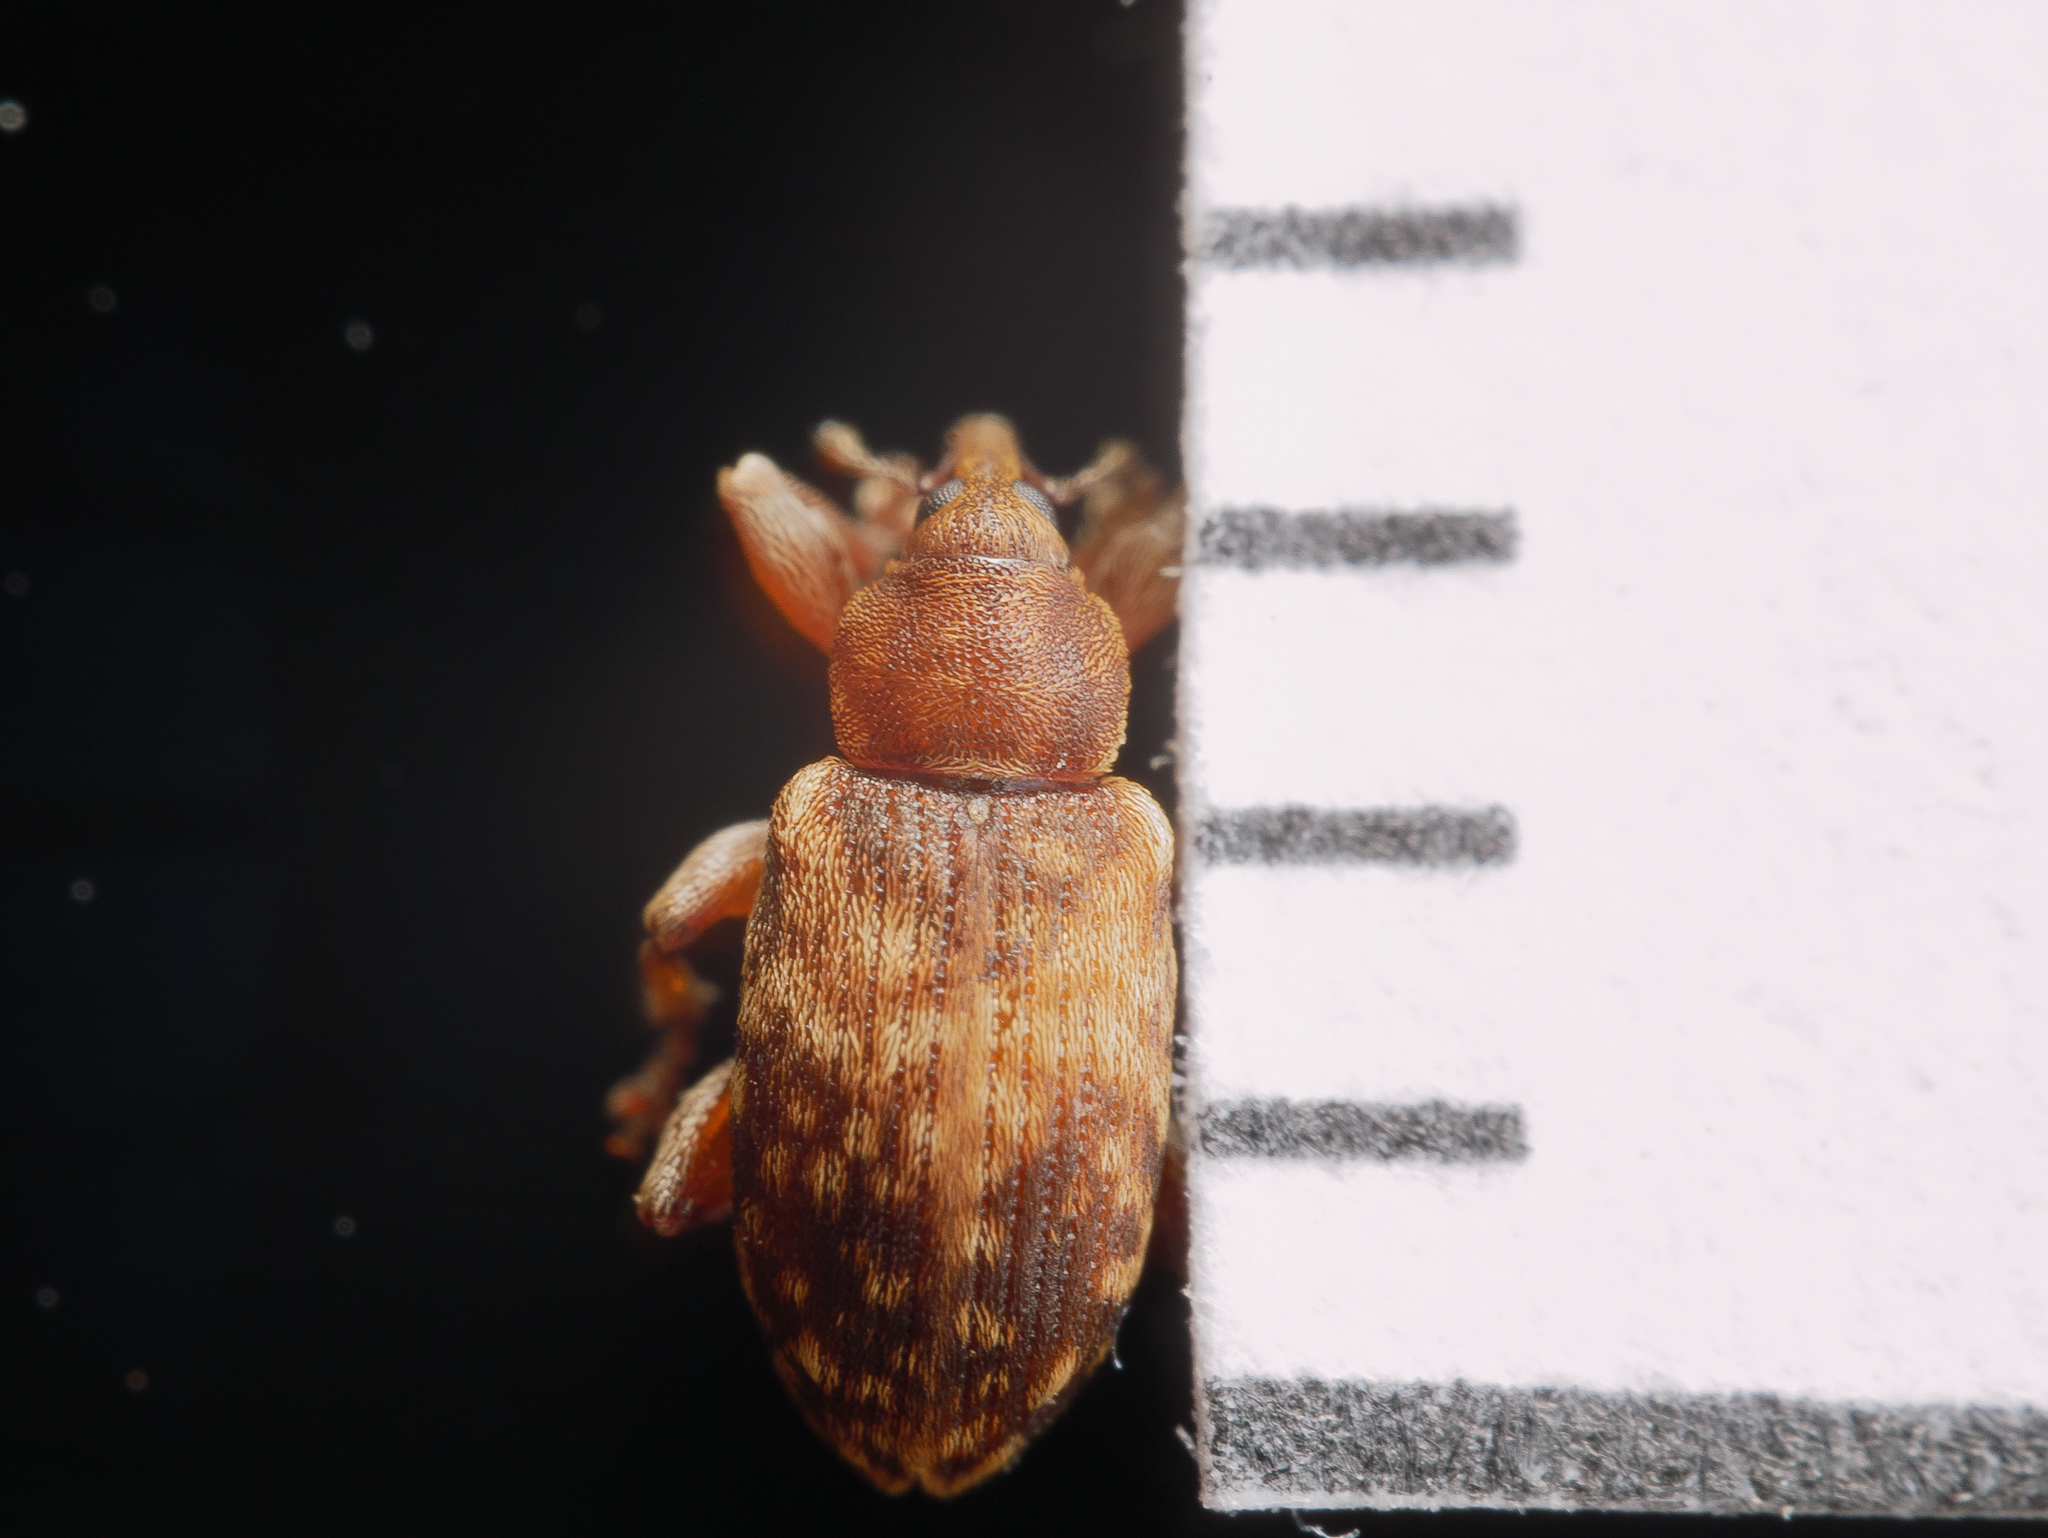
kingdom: Animalia
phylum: Arthropoda
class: Insecta
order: Coleoptera
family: Brachyceridae
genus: Erirhinus
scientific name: Erirhinus nebulosus
